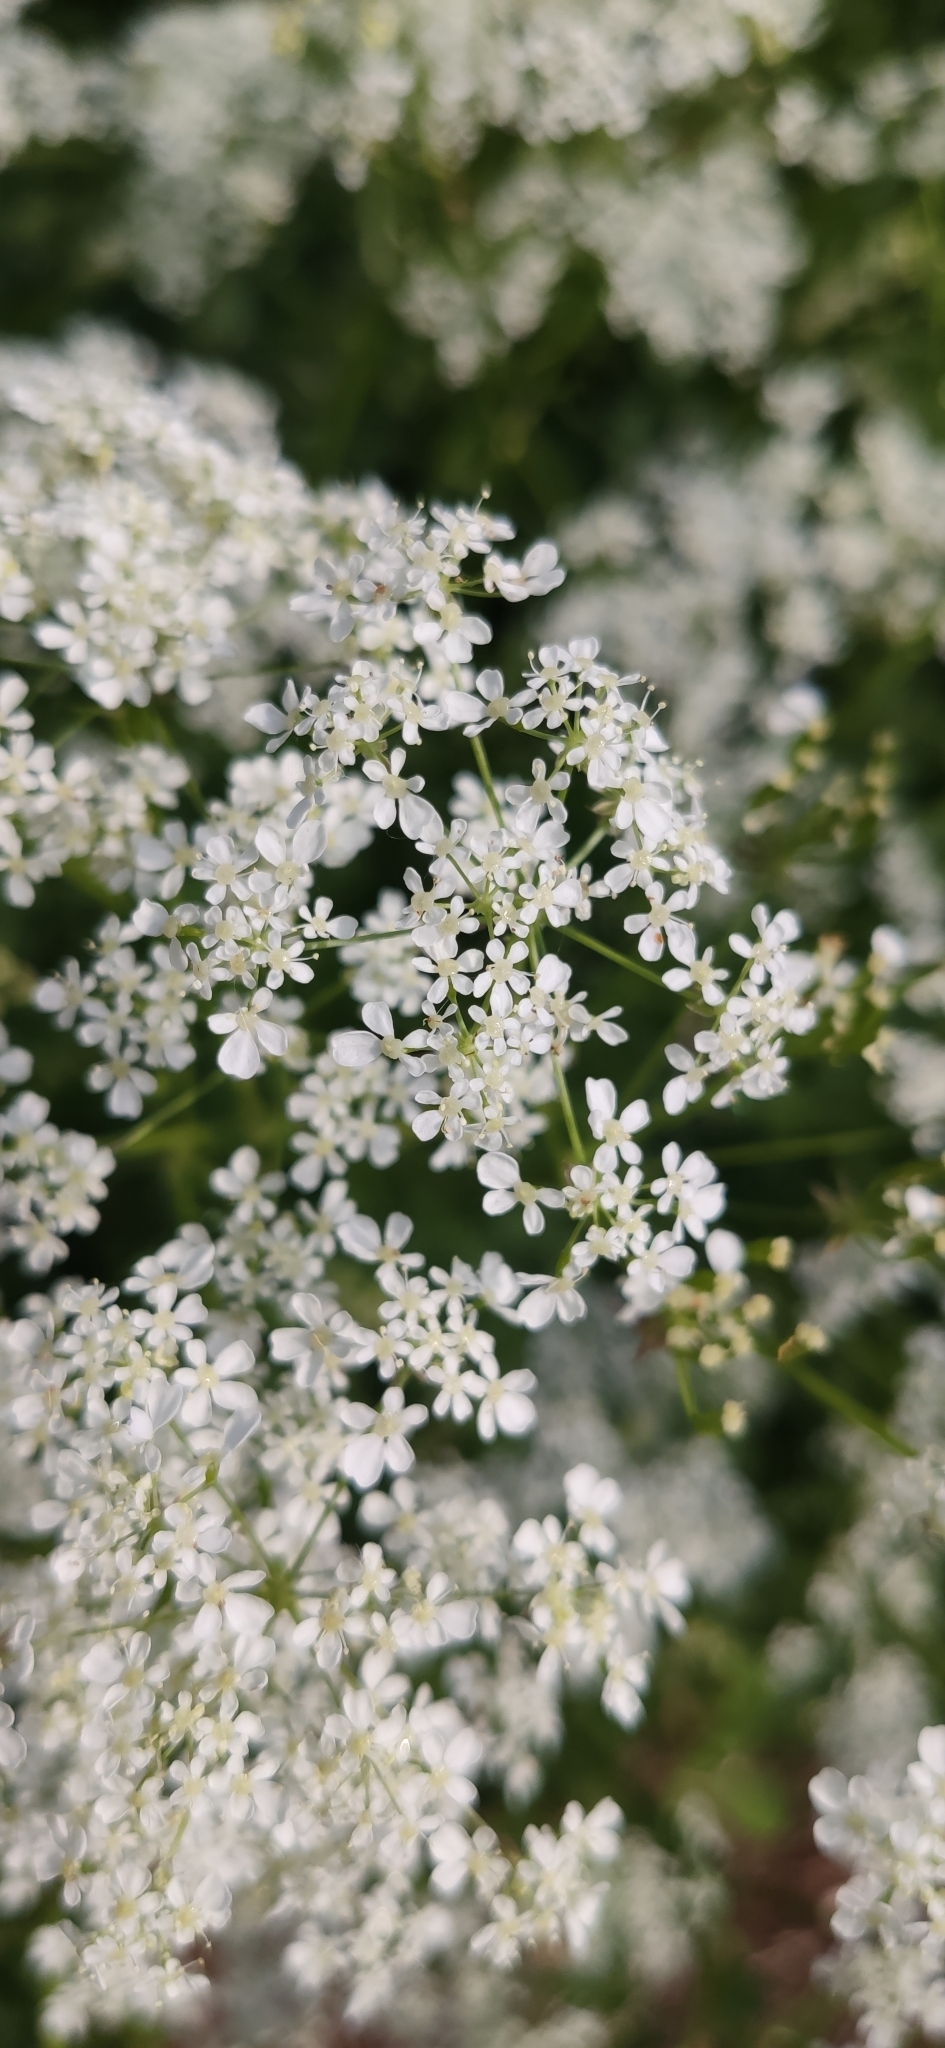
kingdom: Plantae
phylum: Tracheophyta
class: Magnoliopsida
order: Apiales
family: Apiaceae
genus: Anthriscus
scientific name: Anthriscus sylvestris
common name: Cow parsley
